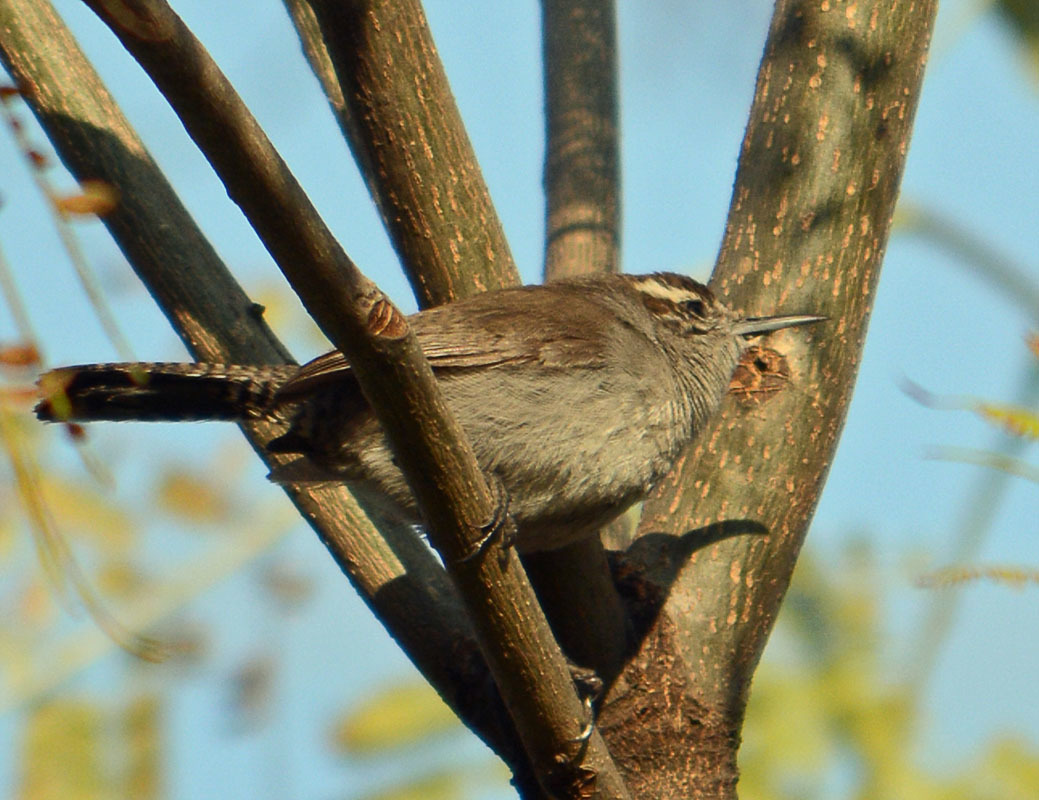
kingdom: Animalia
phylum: Chordata
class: Aves
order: Passeriformes
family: Troglodytidae
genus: Thryomanes
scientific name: Thryomanes bewickii
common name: Bewick's wren
